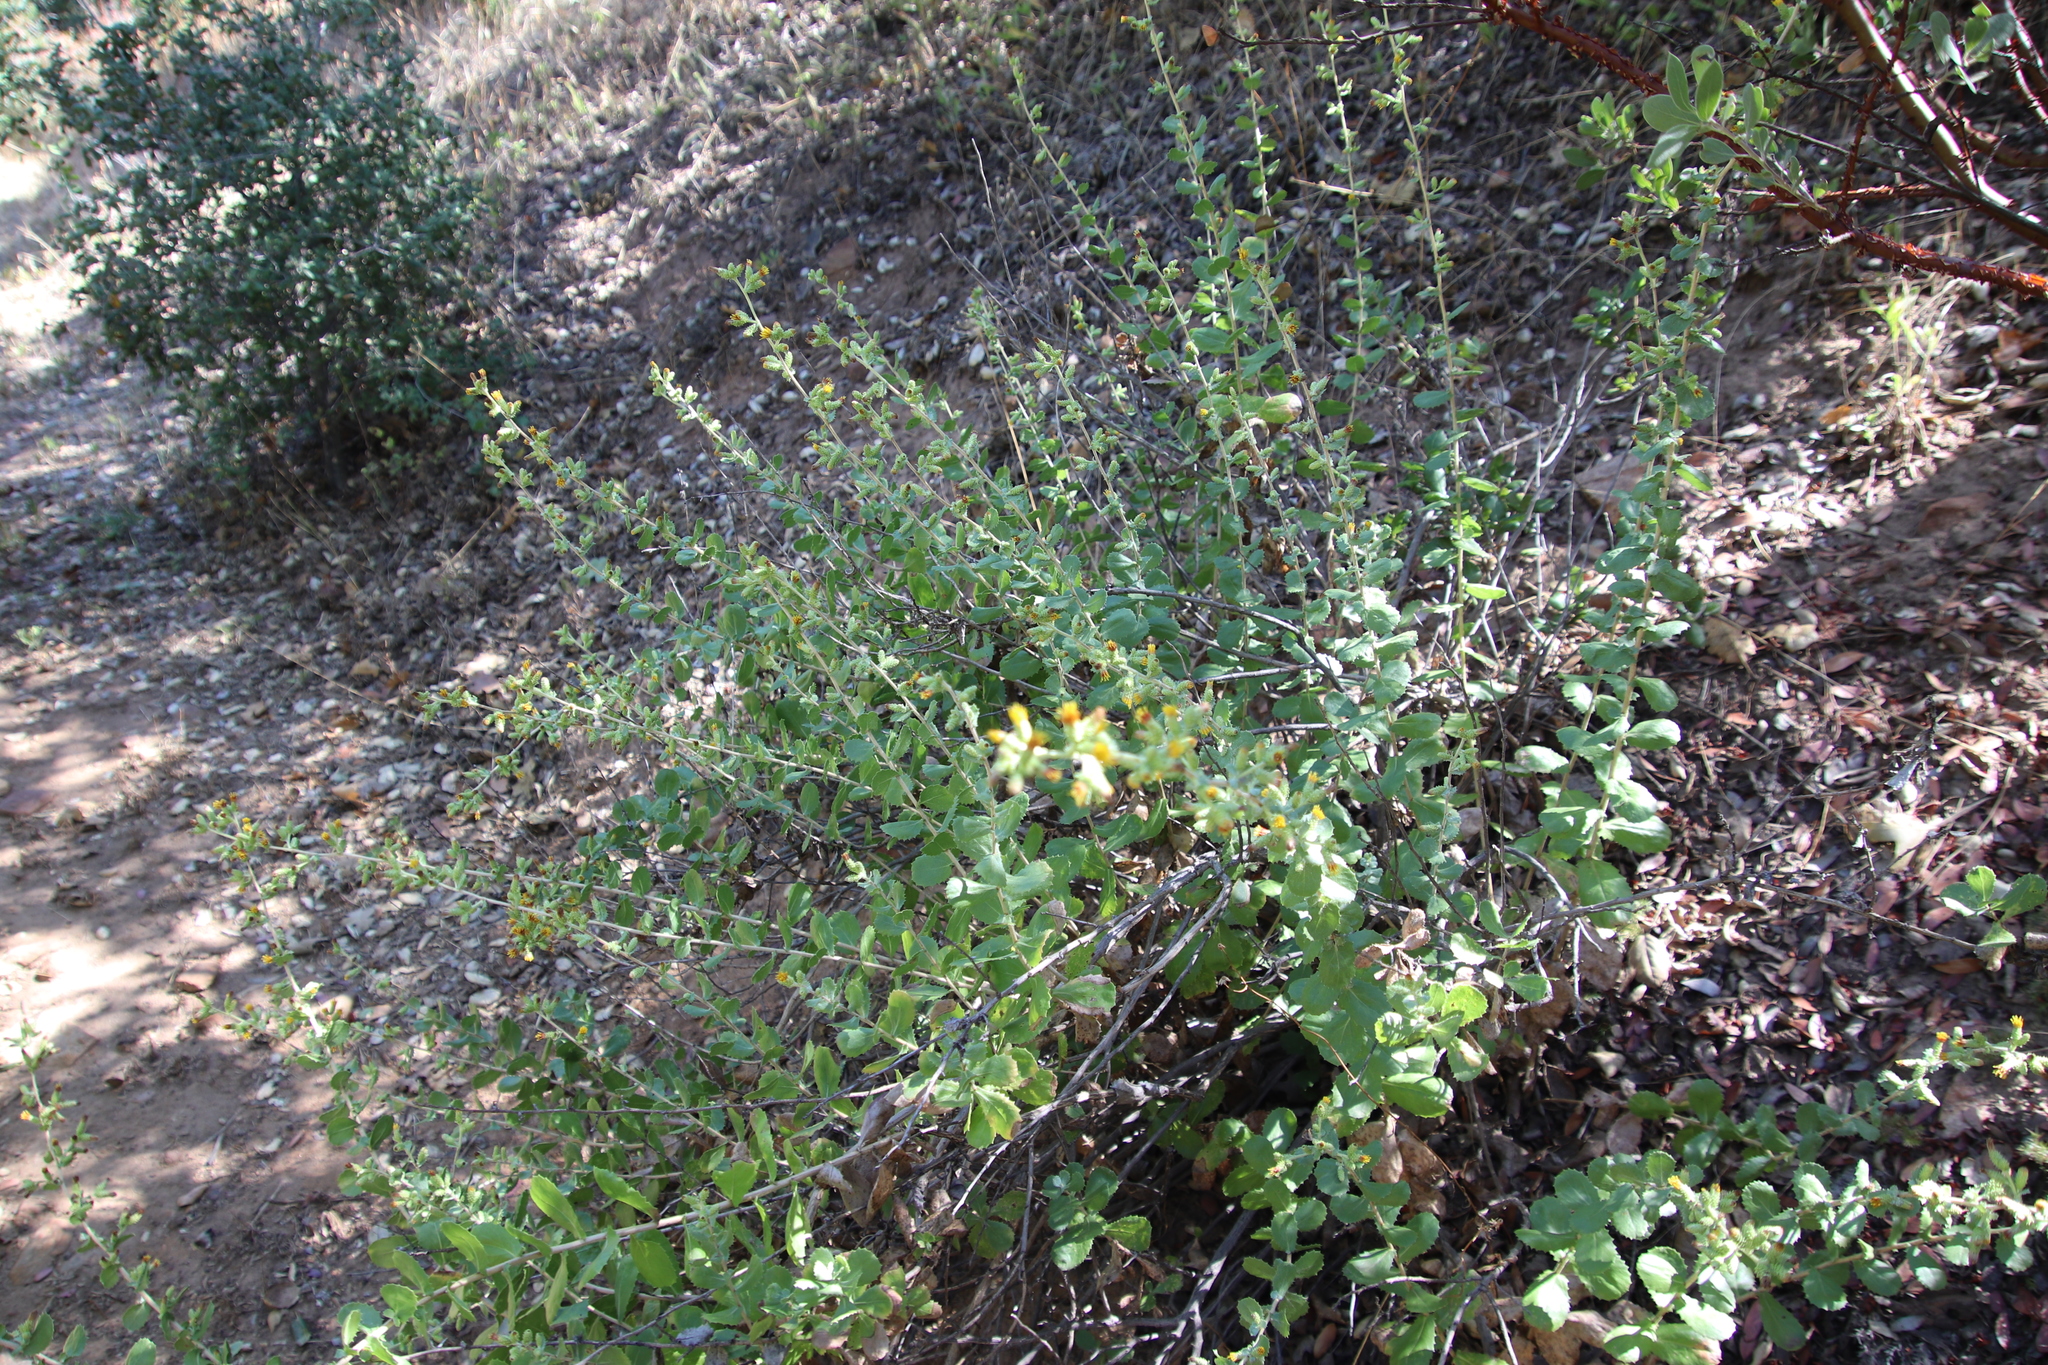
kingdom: Plantae
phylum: Tracheophyta
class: Magnoliopsida
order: Asterales
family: Asteraceae
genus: Hazardia
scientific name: Hazardia squarrosa
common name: Saw-tooth goldenbush
